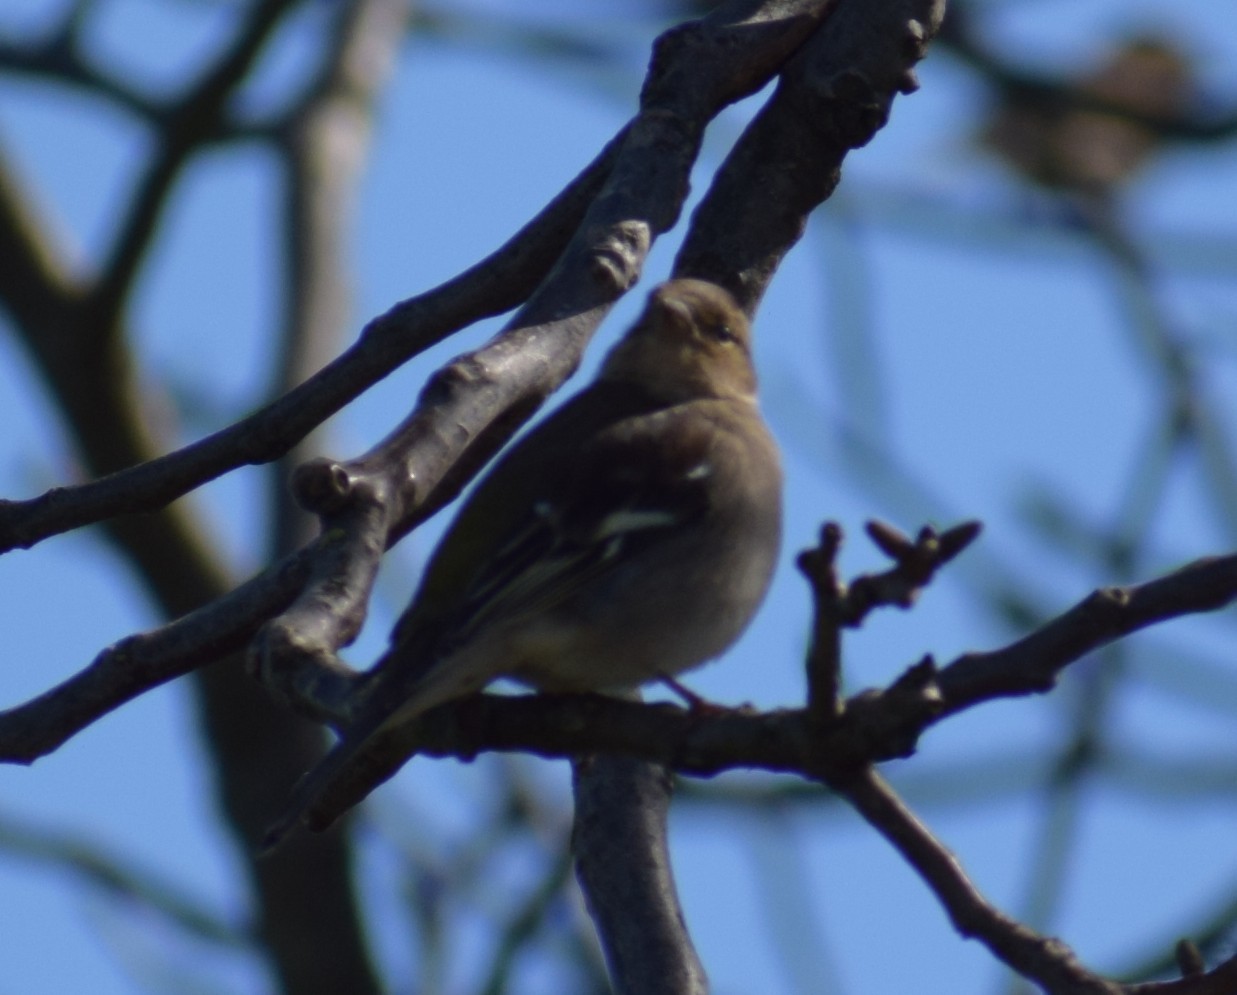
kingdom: Animalia
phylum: Chordata
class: Aves
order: Passeriformes
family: Fringillidae
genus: Fringilla
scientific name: Fringilla coelebs
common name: Common chaffinch
